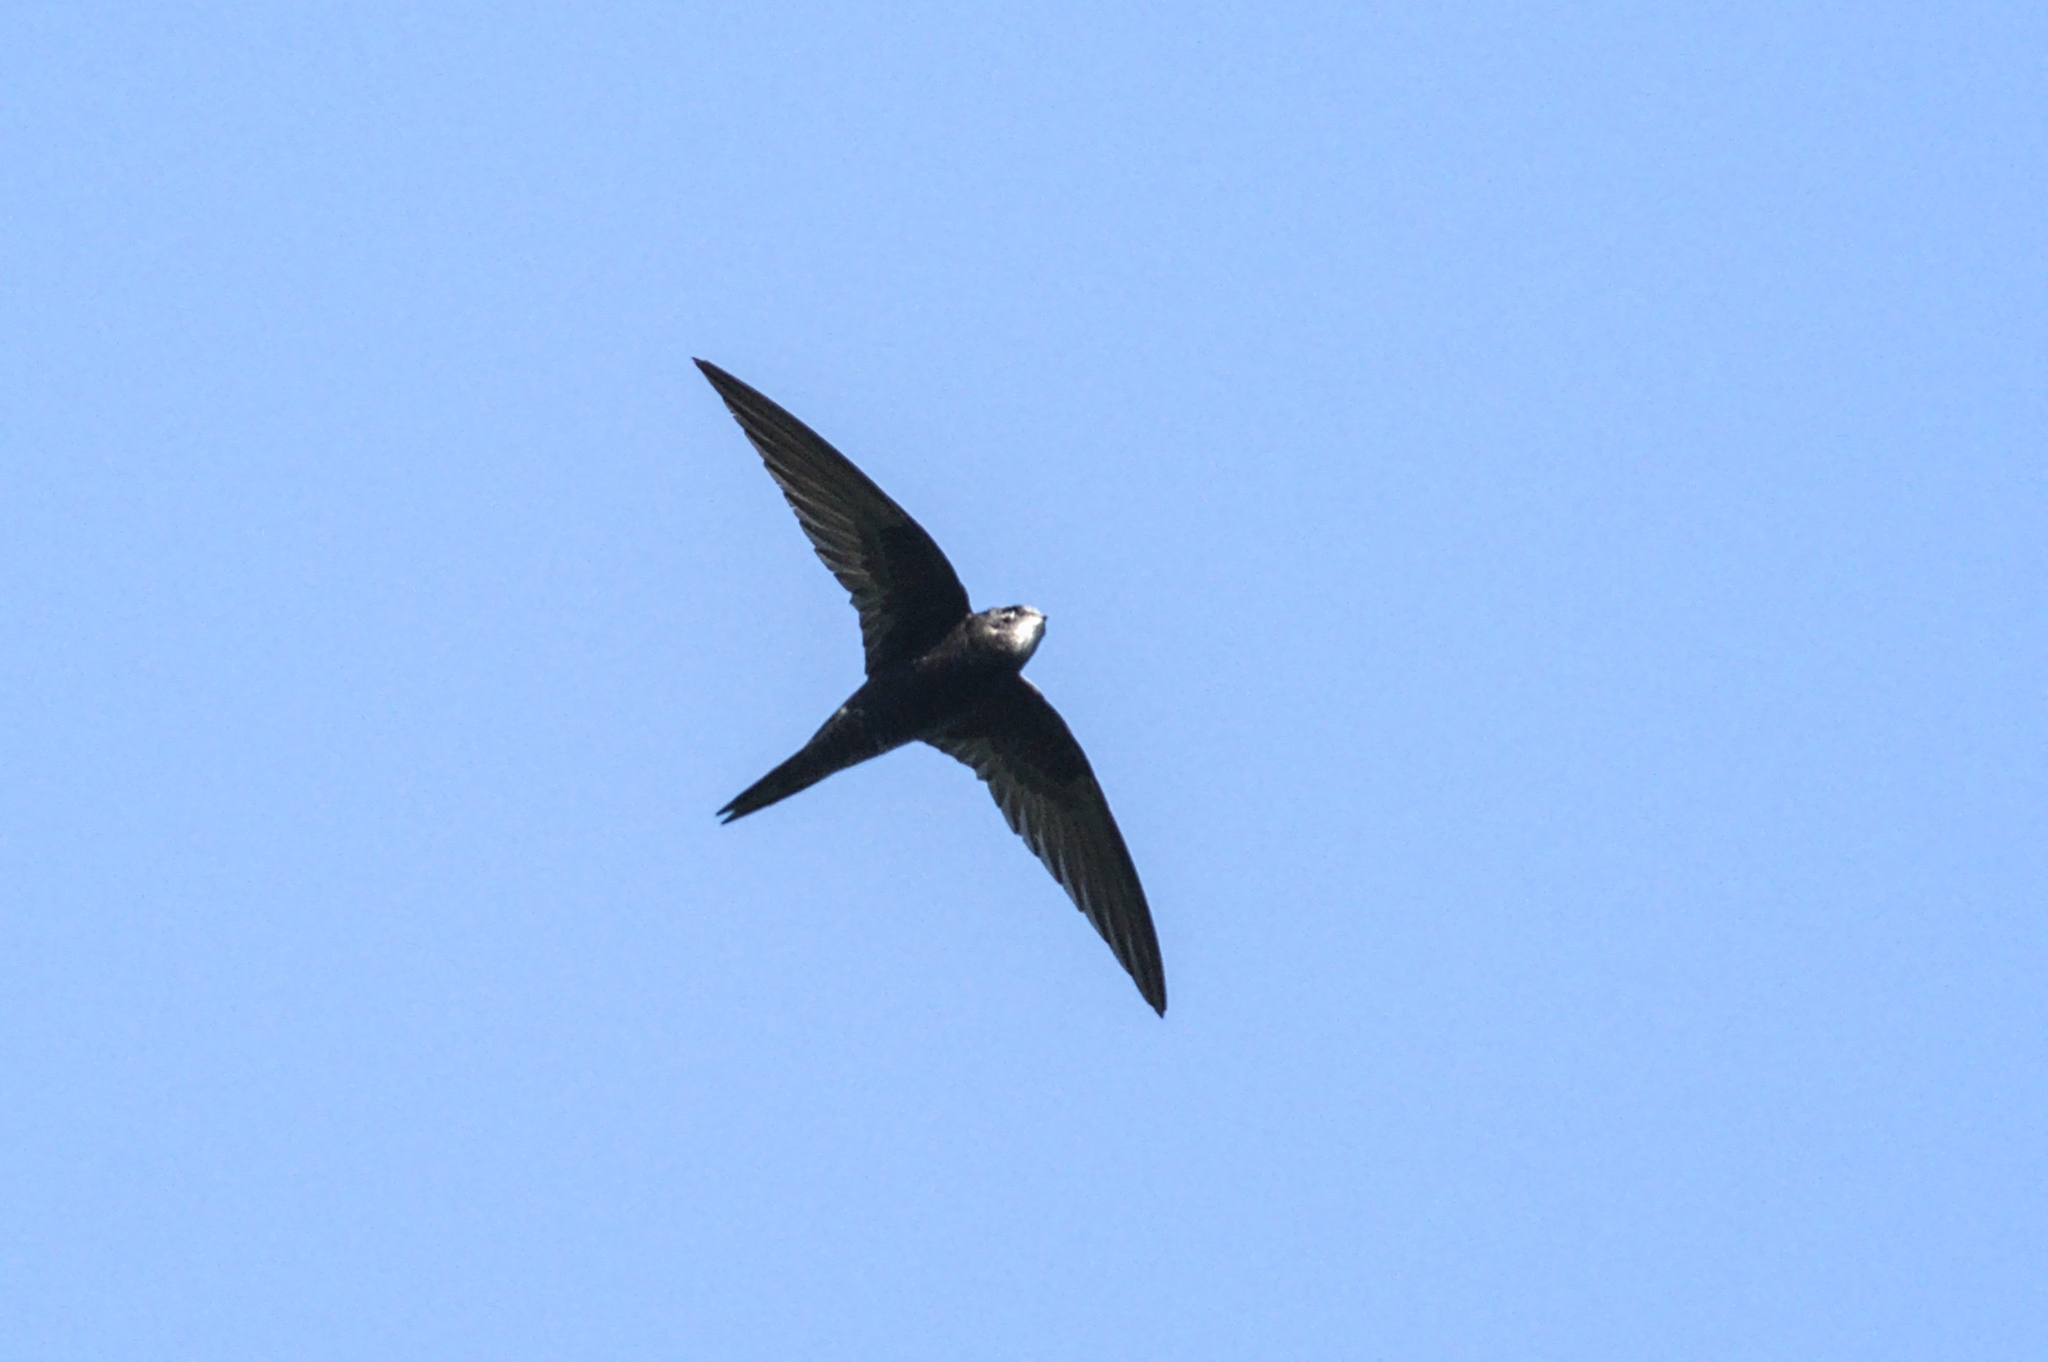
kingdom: Animalia
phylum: Chordata
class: Aves
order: Apodiformes
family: Apodidae
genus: Apus
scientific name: Apus apus
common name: Common swift
